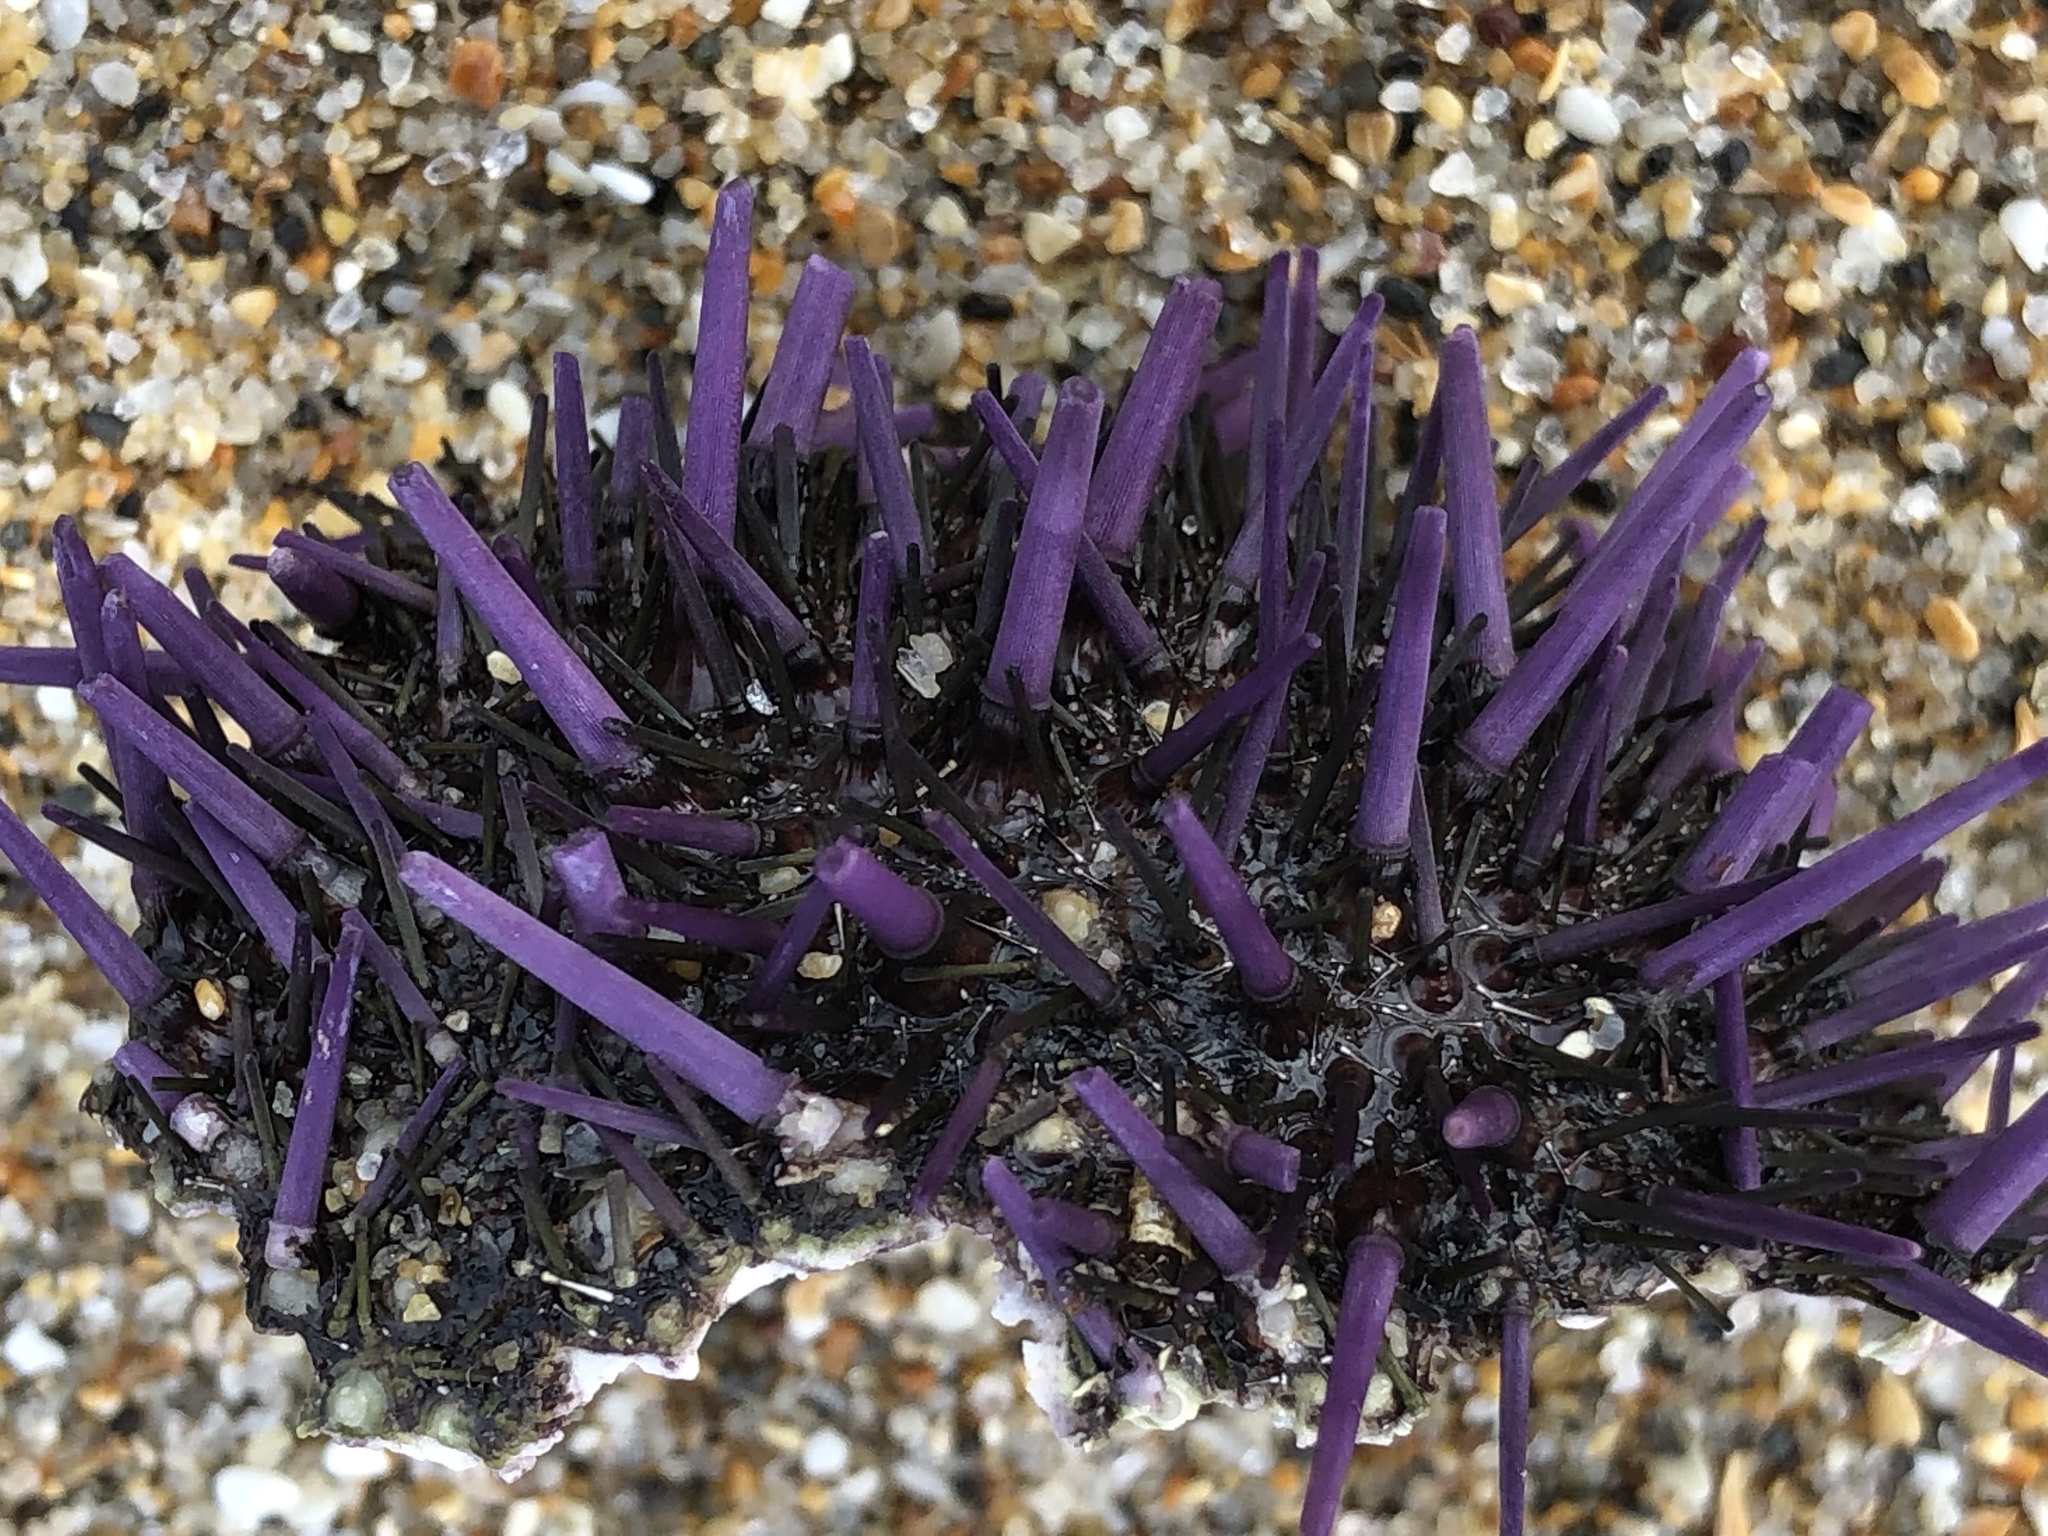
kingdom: Animalia
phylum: Echinodermata
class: Echinoidea
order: Camarodonta
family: Strongylocentrotidae
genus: Strongylocentrotus
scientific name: Strongylocentrotus purpuratus
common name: Purple sea urchin
